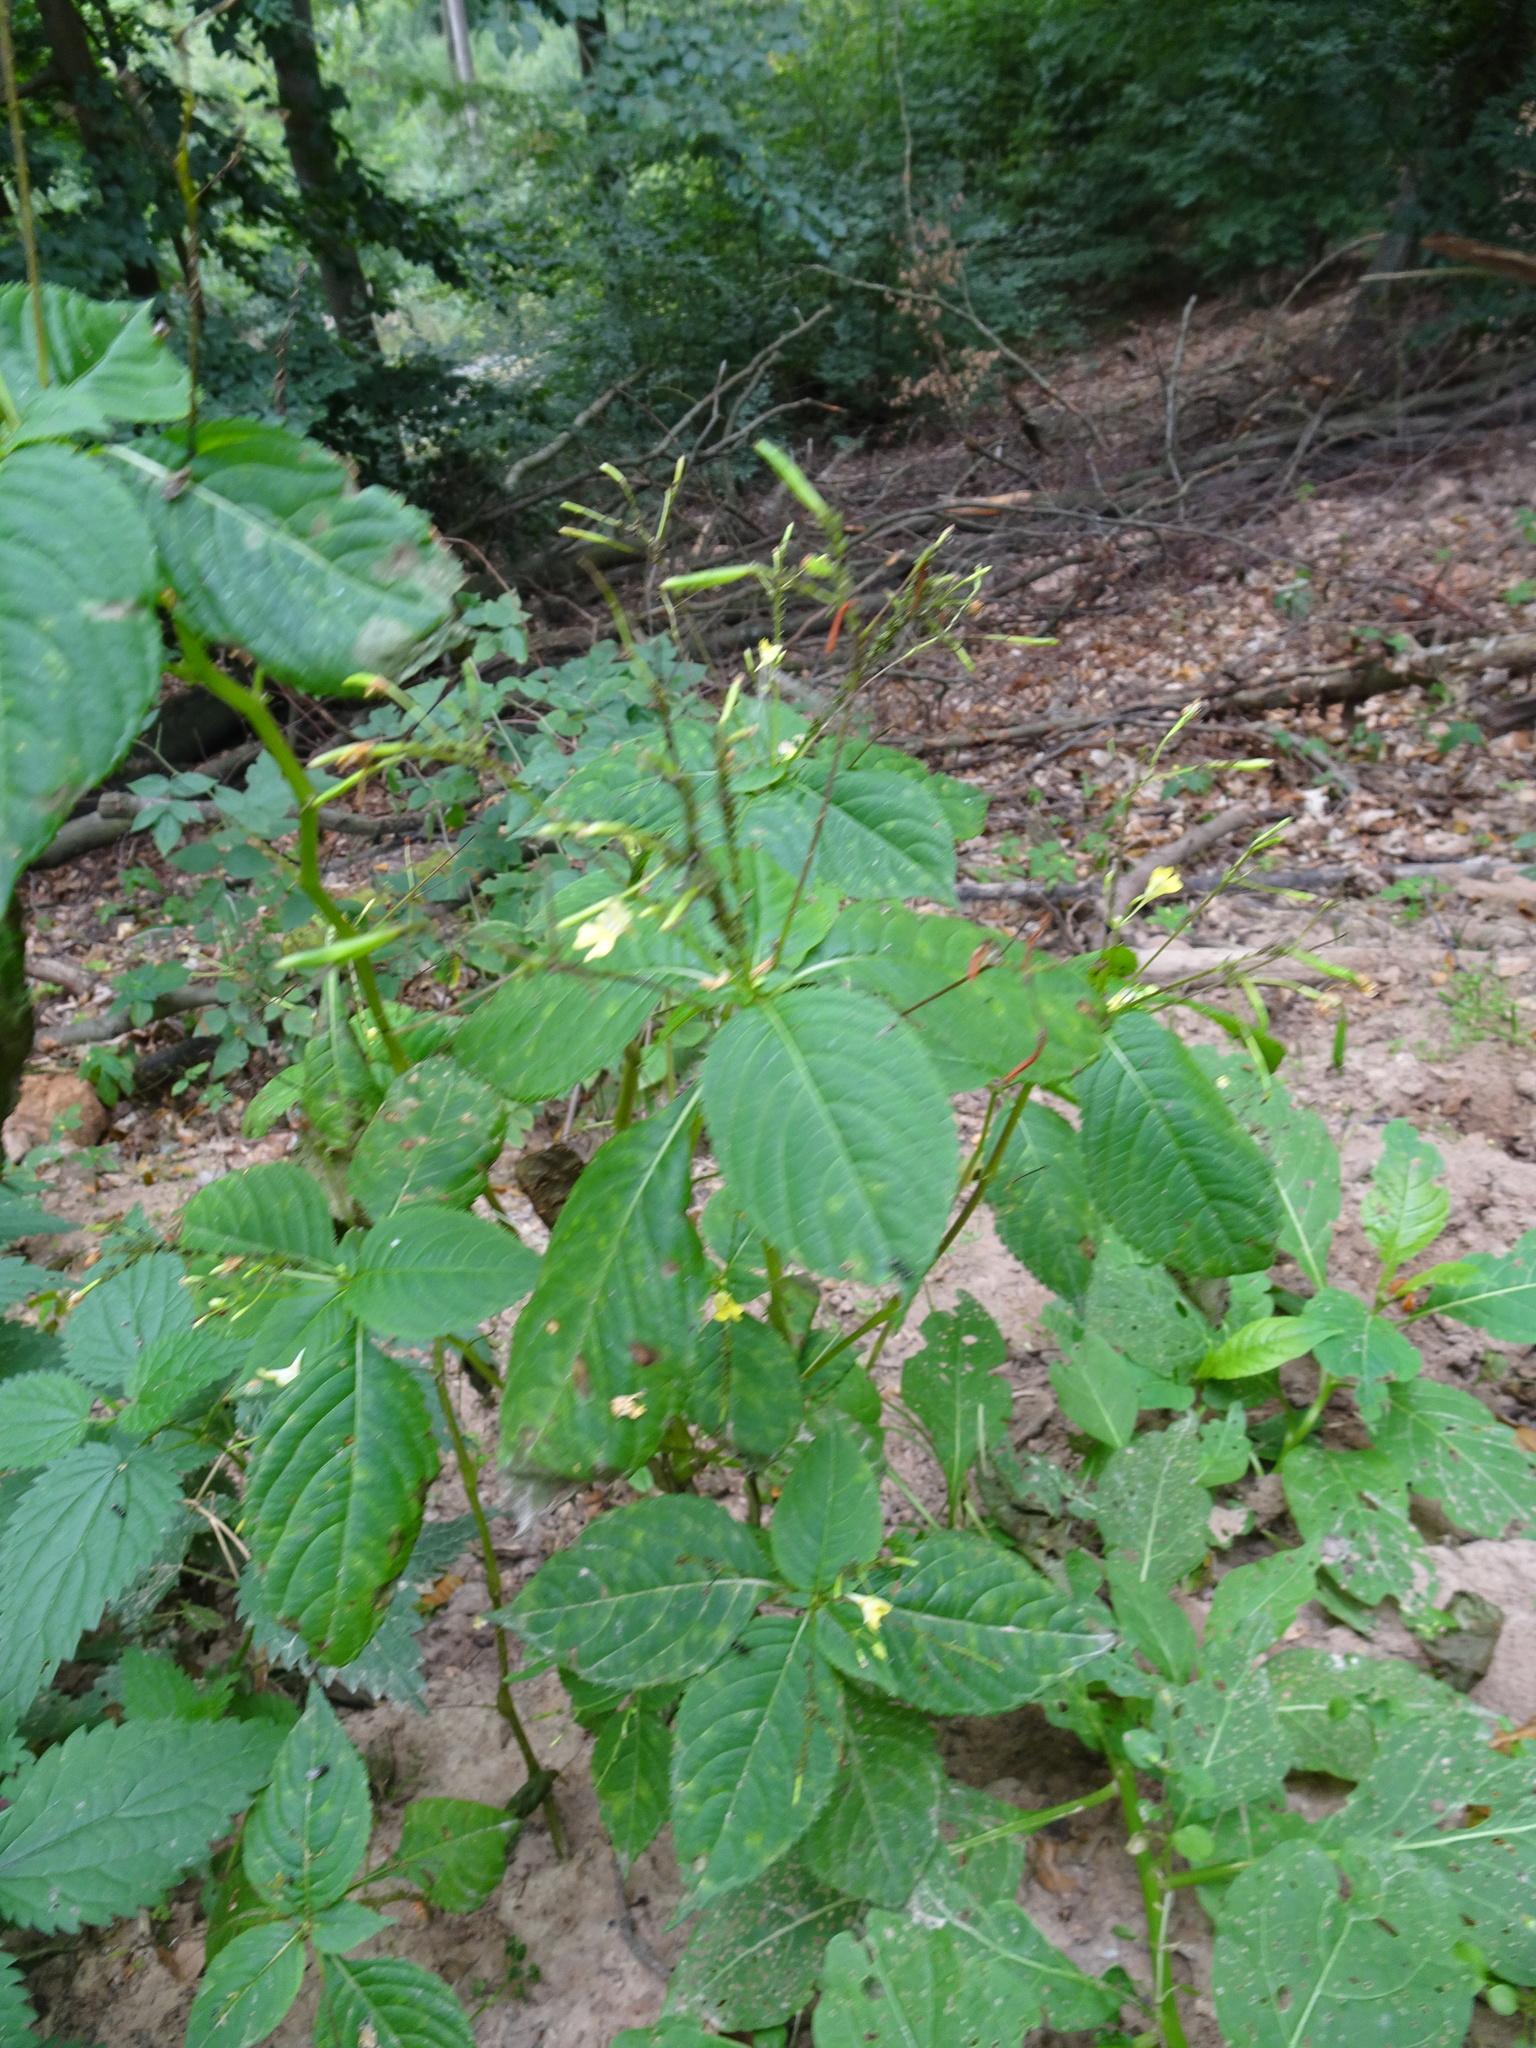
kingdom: Plantae
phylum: Tracheophyta
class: Magnoliopsida
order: Ericales
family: Balsaminaceae
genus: Impatiens
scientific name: Impatiens parviflora
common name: Small balsam
